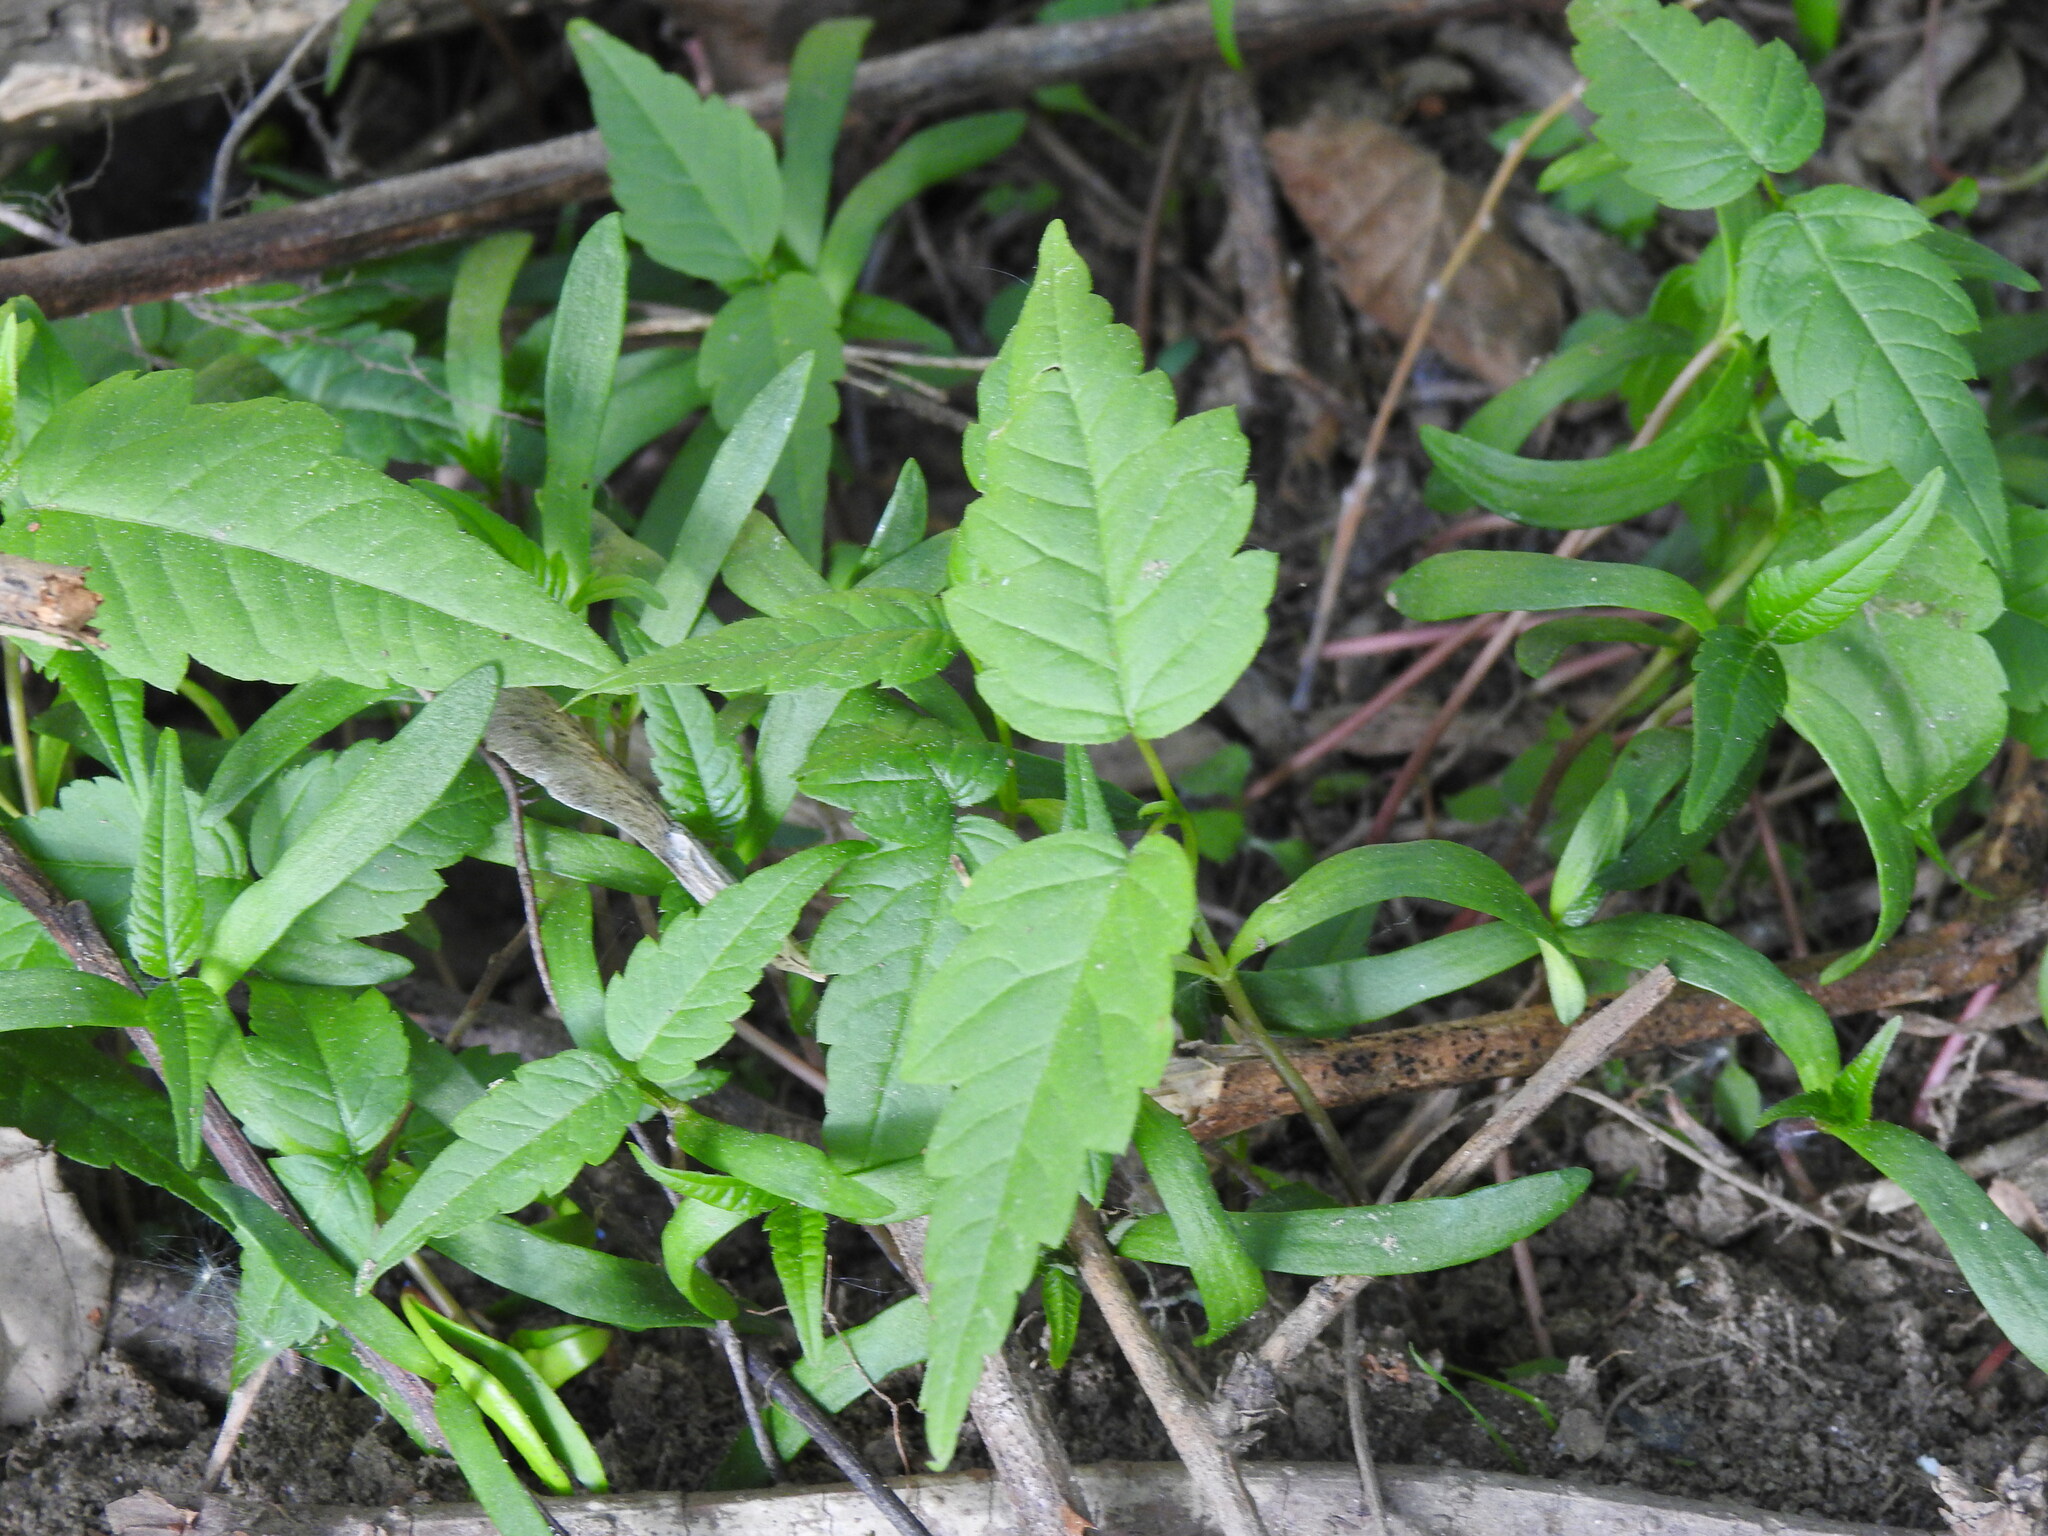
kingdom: Plantae
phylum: Tracheophyta
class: Magnoliopsida
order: Sapindales
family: Sapindaceae
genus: Acer
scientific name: Acer negundo
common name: Ashleaf maple
